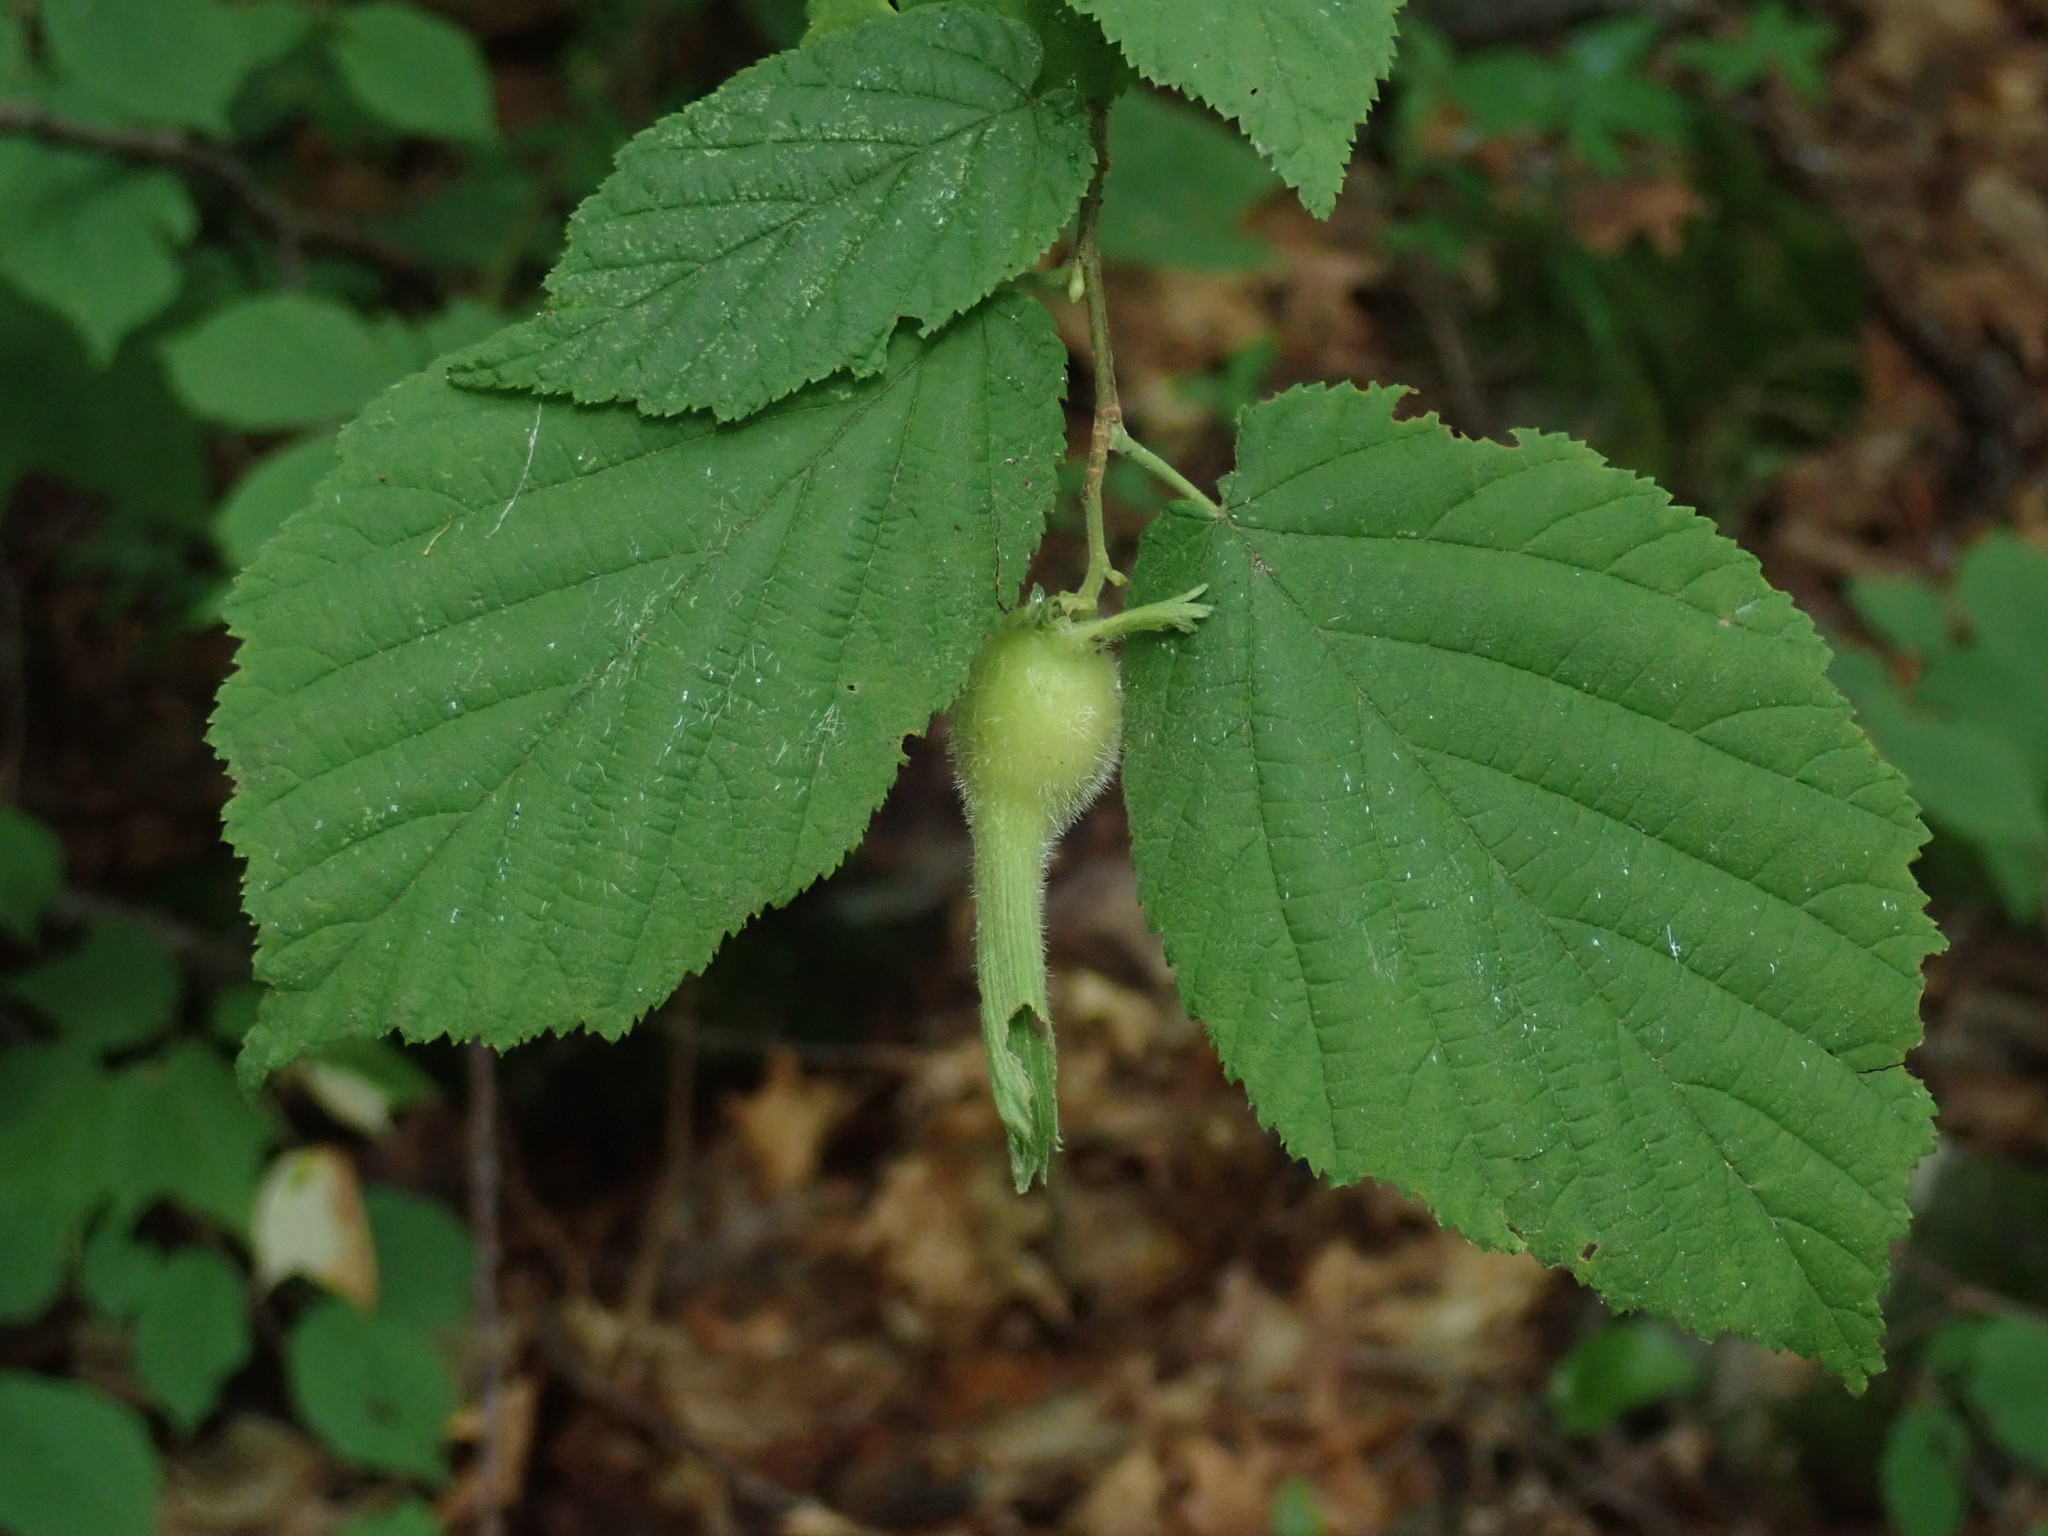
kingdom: Plantae
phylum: Tracheophyta
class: Magnoliopsida
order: Fagales
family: Betulaceae
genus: Corylus
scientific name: Corylus cornuta
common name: Beaked hazel
